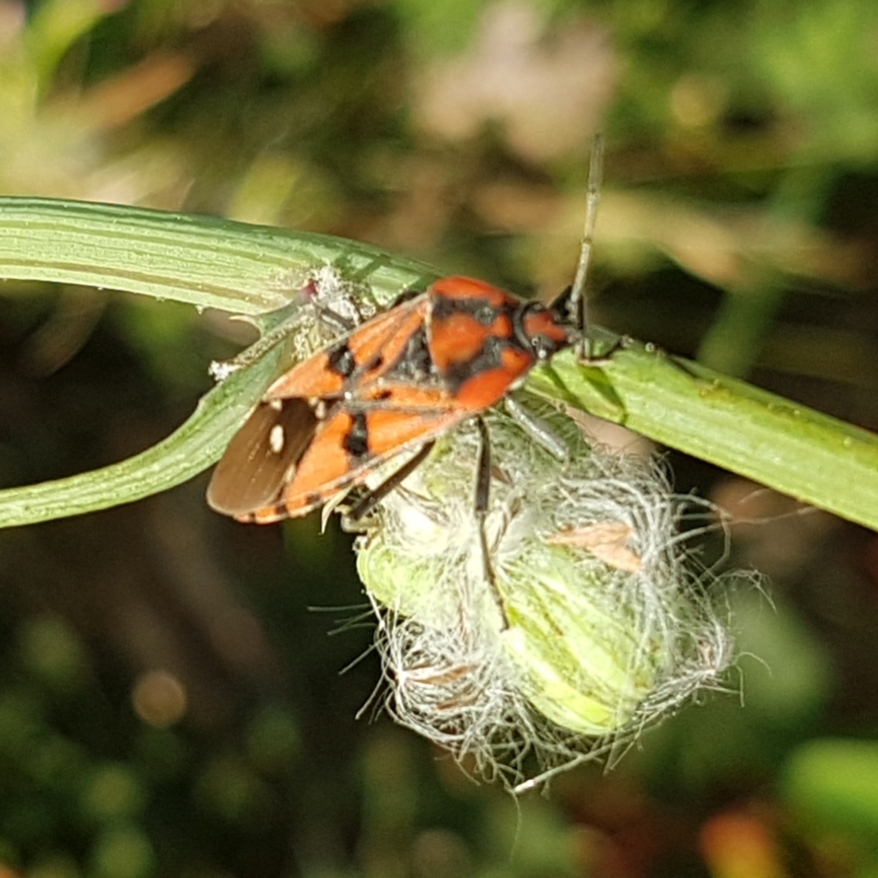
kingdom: Animalia
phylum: Arthropoda
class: Insecta
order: Hemiptera
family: Lygaeidae
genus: Spilostethus
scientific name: Spilostethus pandurus
